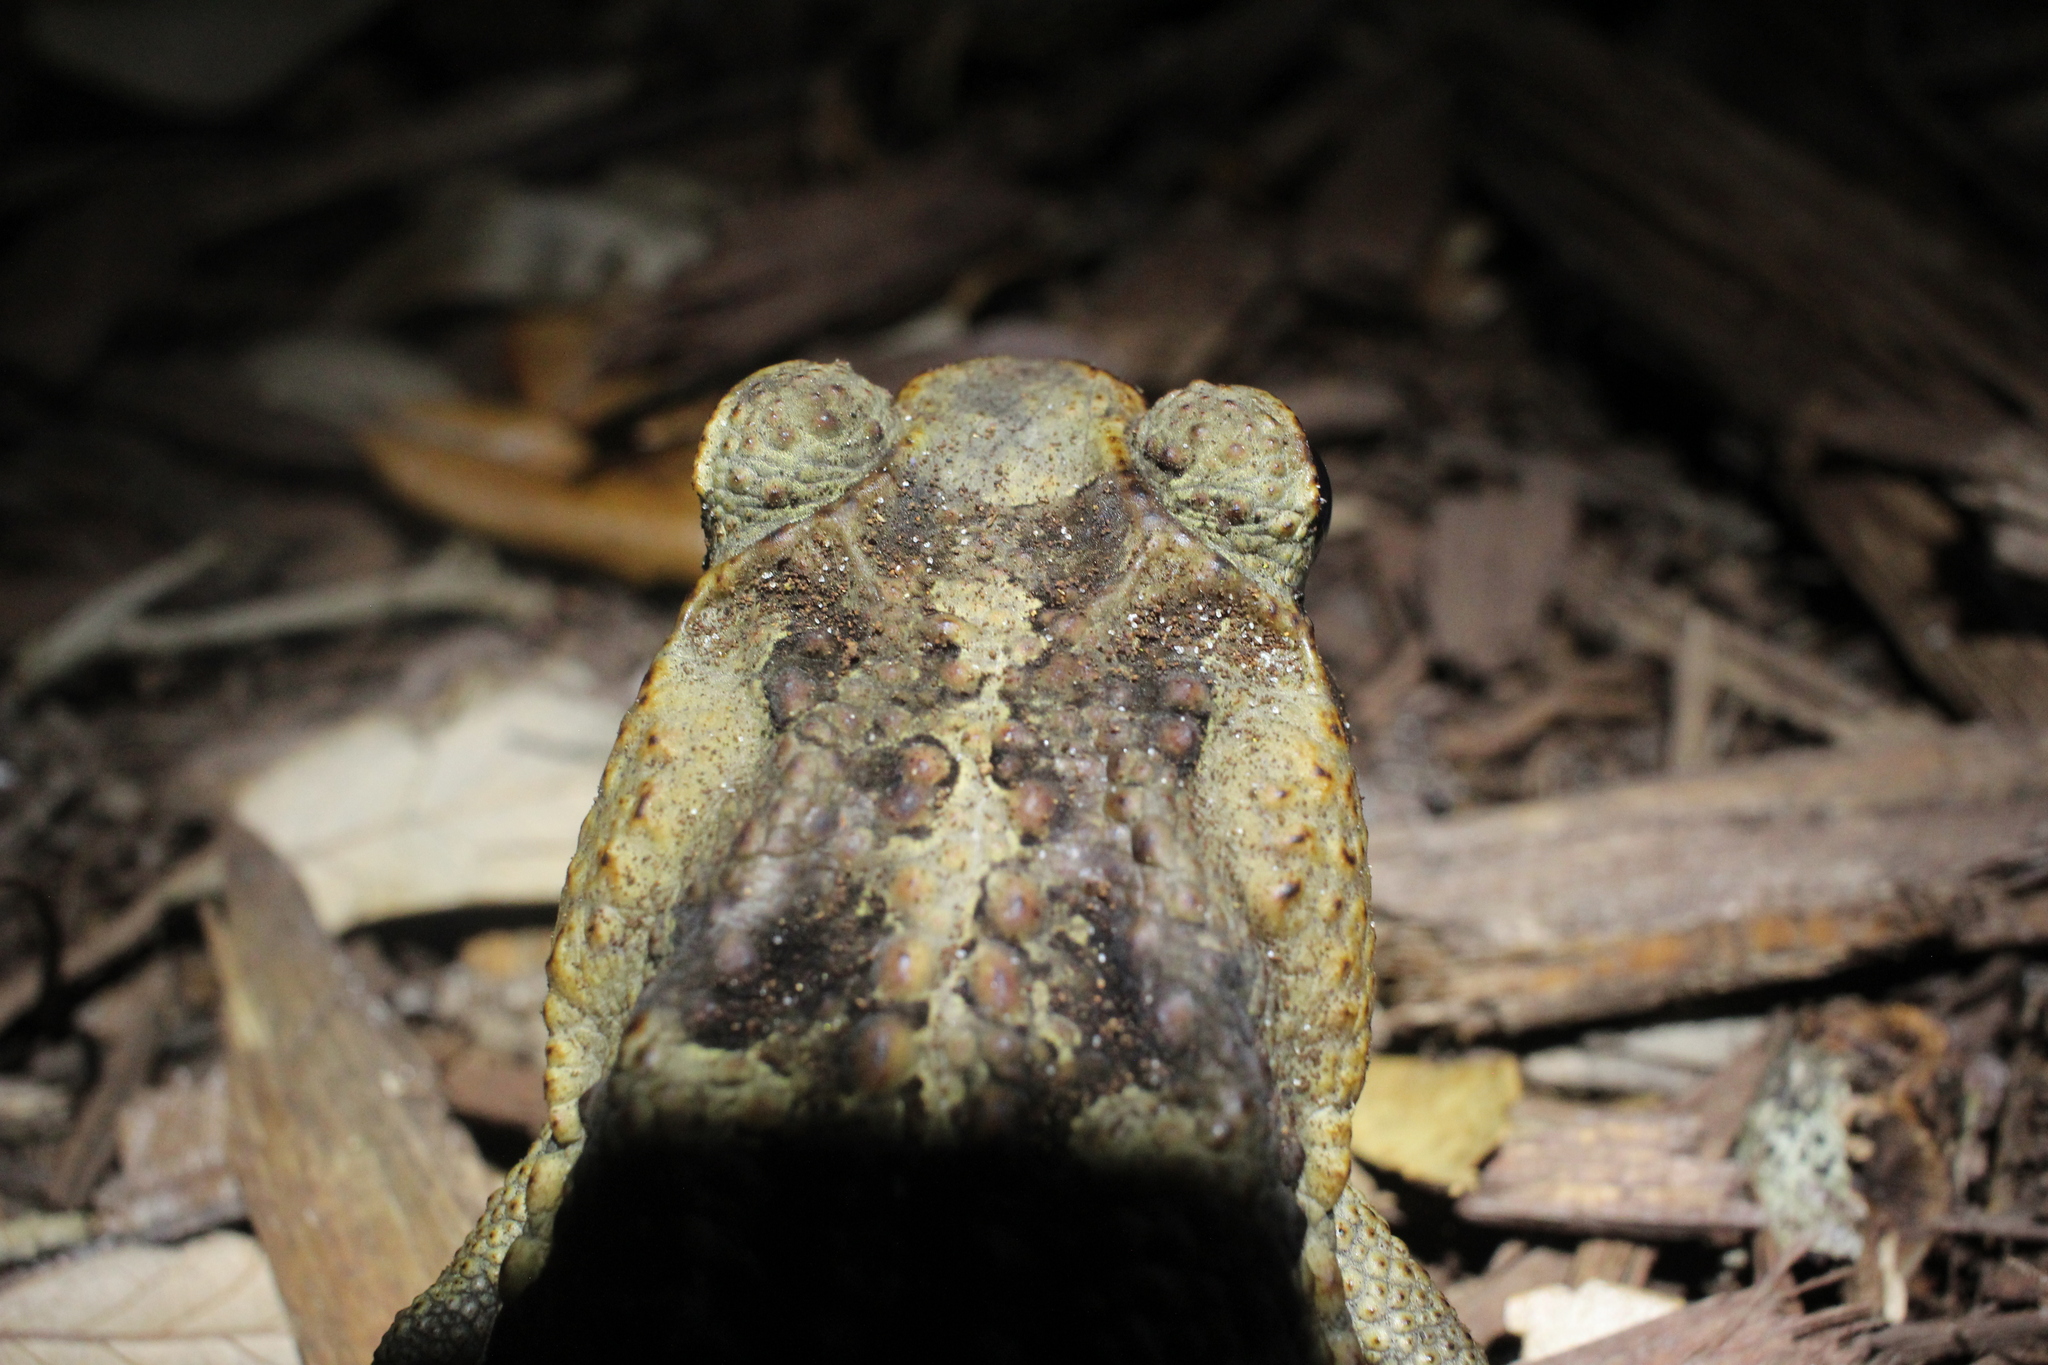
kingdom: Animalia
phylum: Chordata
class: Amphibia
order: Anura
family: Bufonidae
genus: Rhinella
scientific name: Rhinella marina
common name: Cane toad
